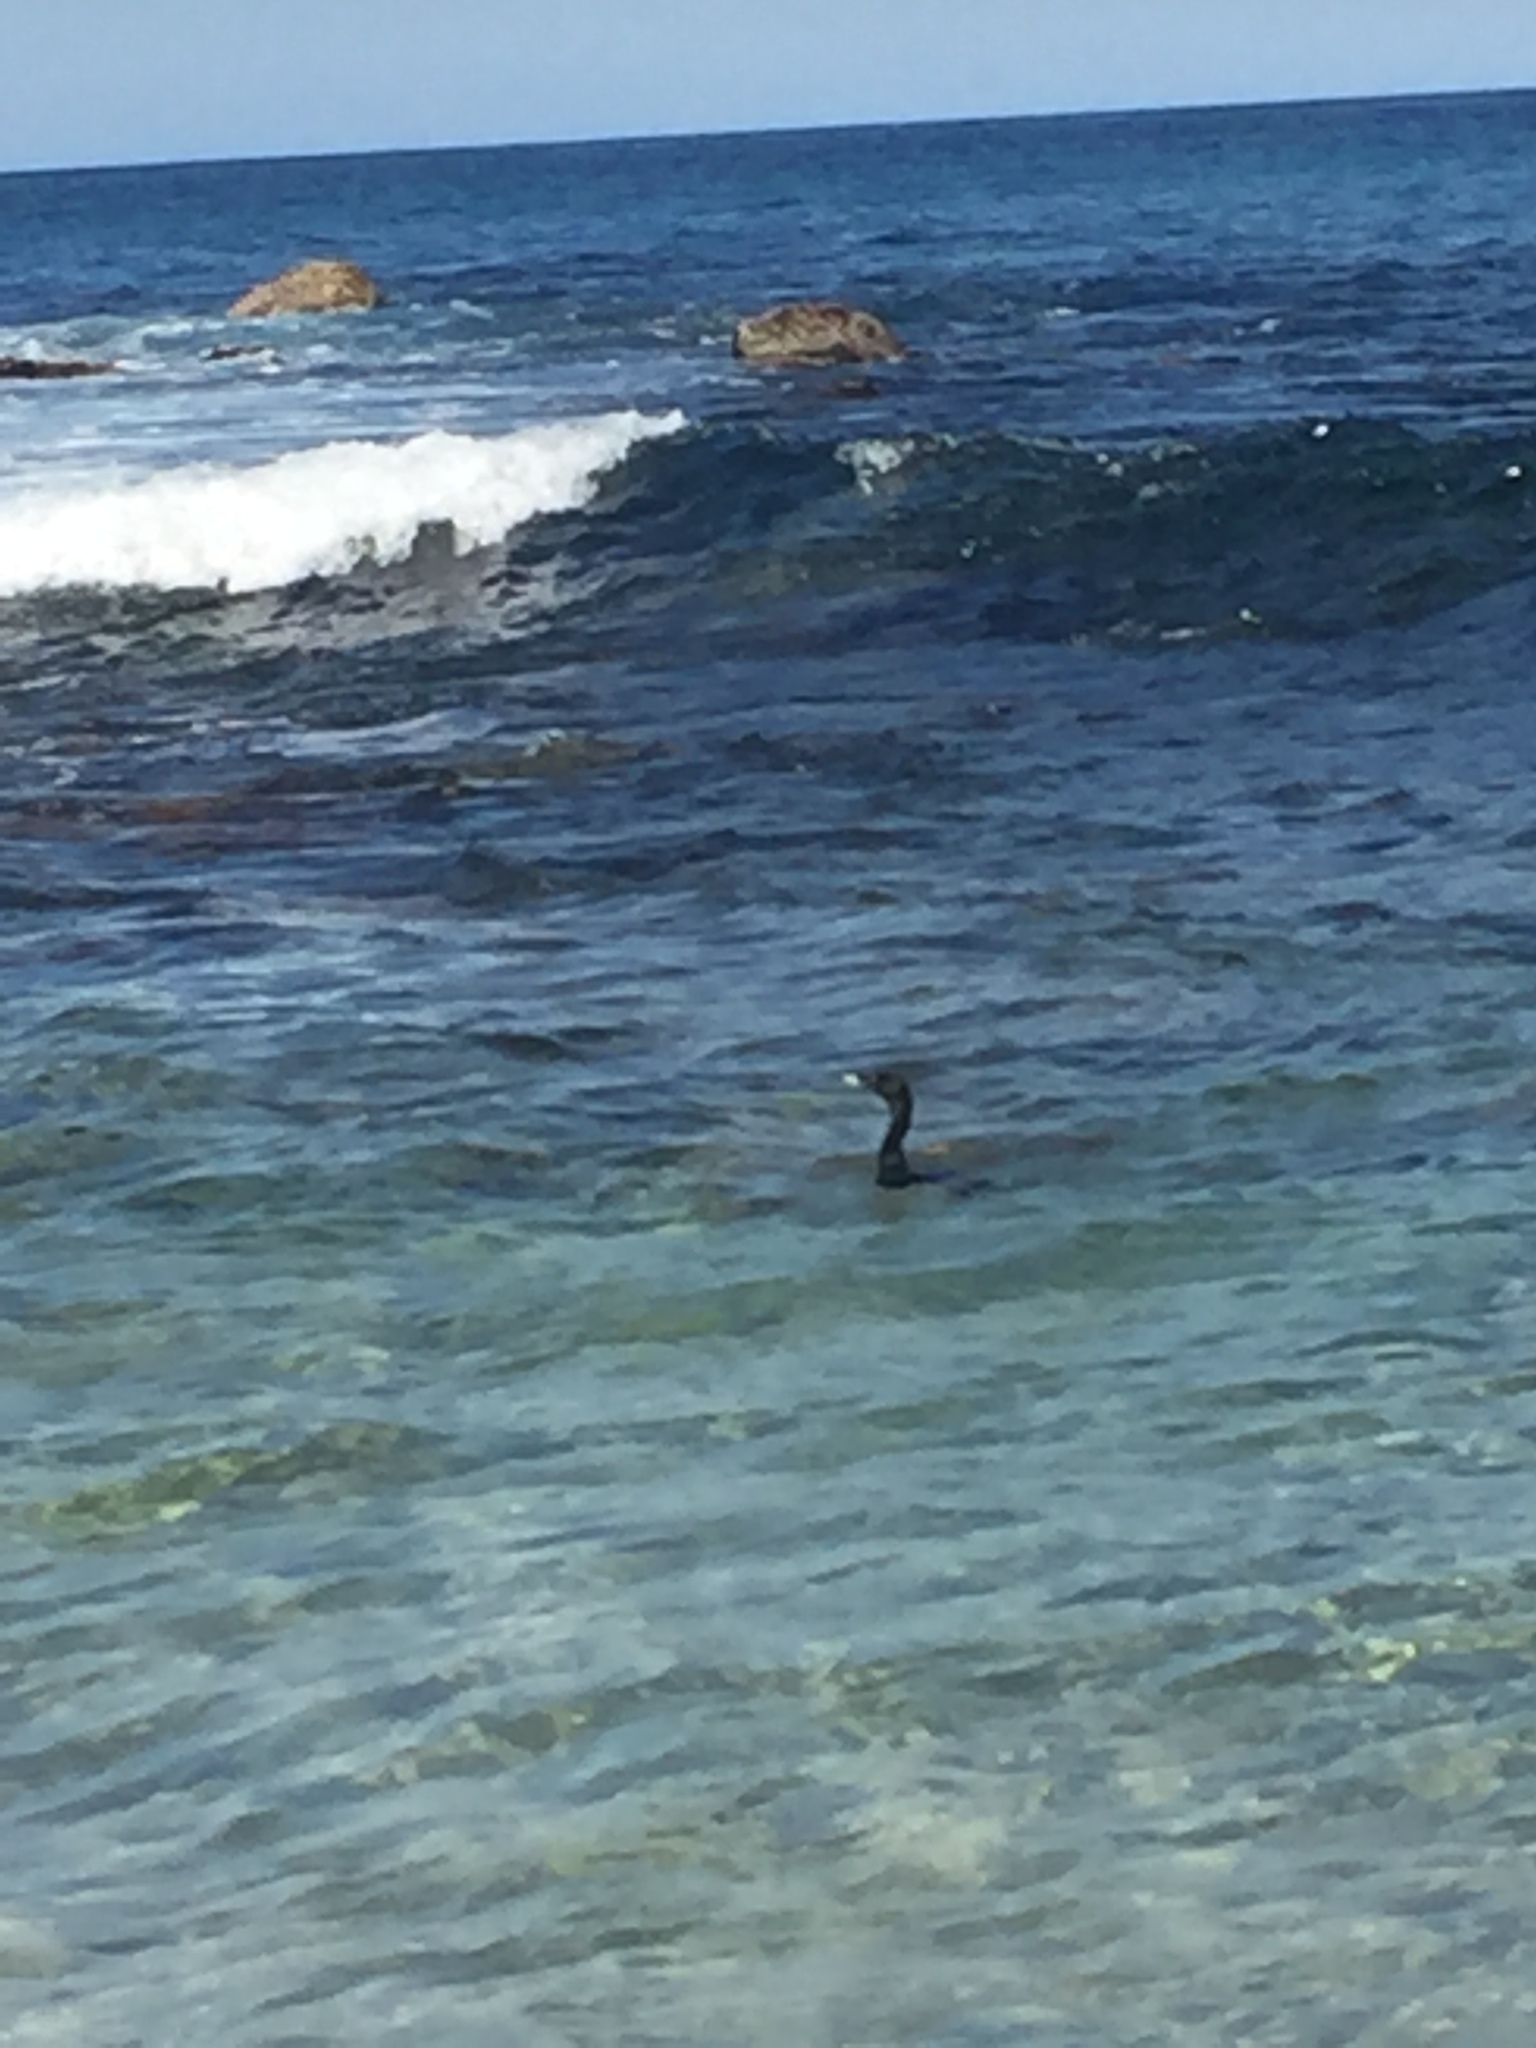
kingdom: Animalia
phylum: Chordata
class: Aves
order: Suliformes
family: Phalacrocoracidae
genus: Phalacrocorax
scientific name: Phalacrocorax sulcirostris
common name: Little black cormorant
